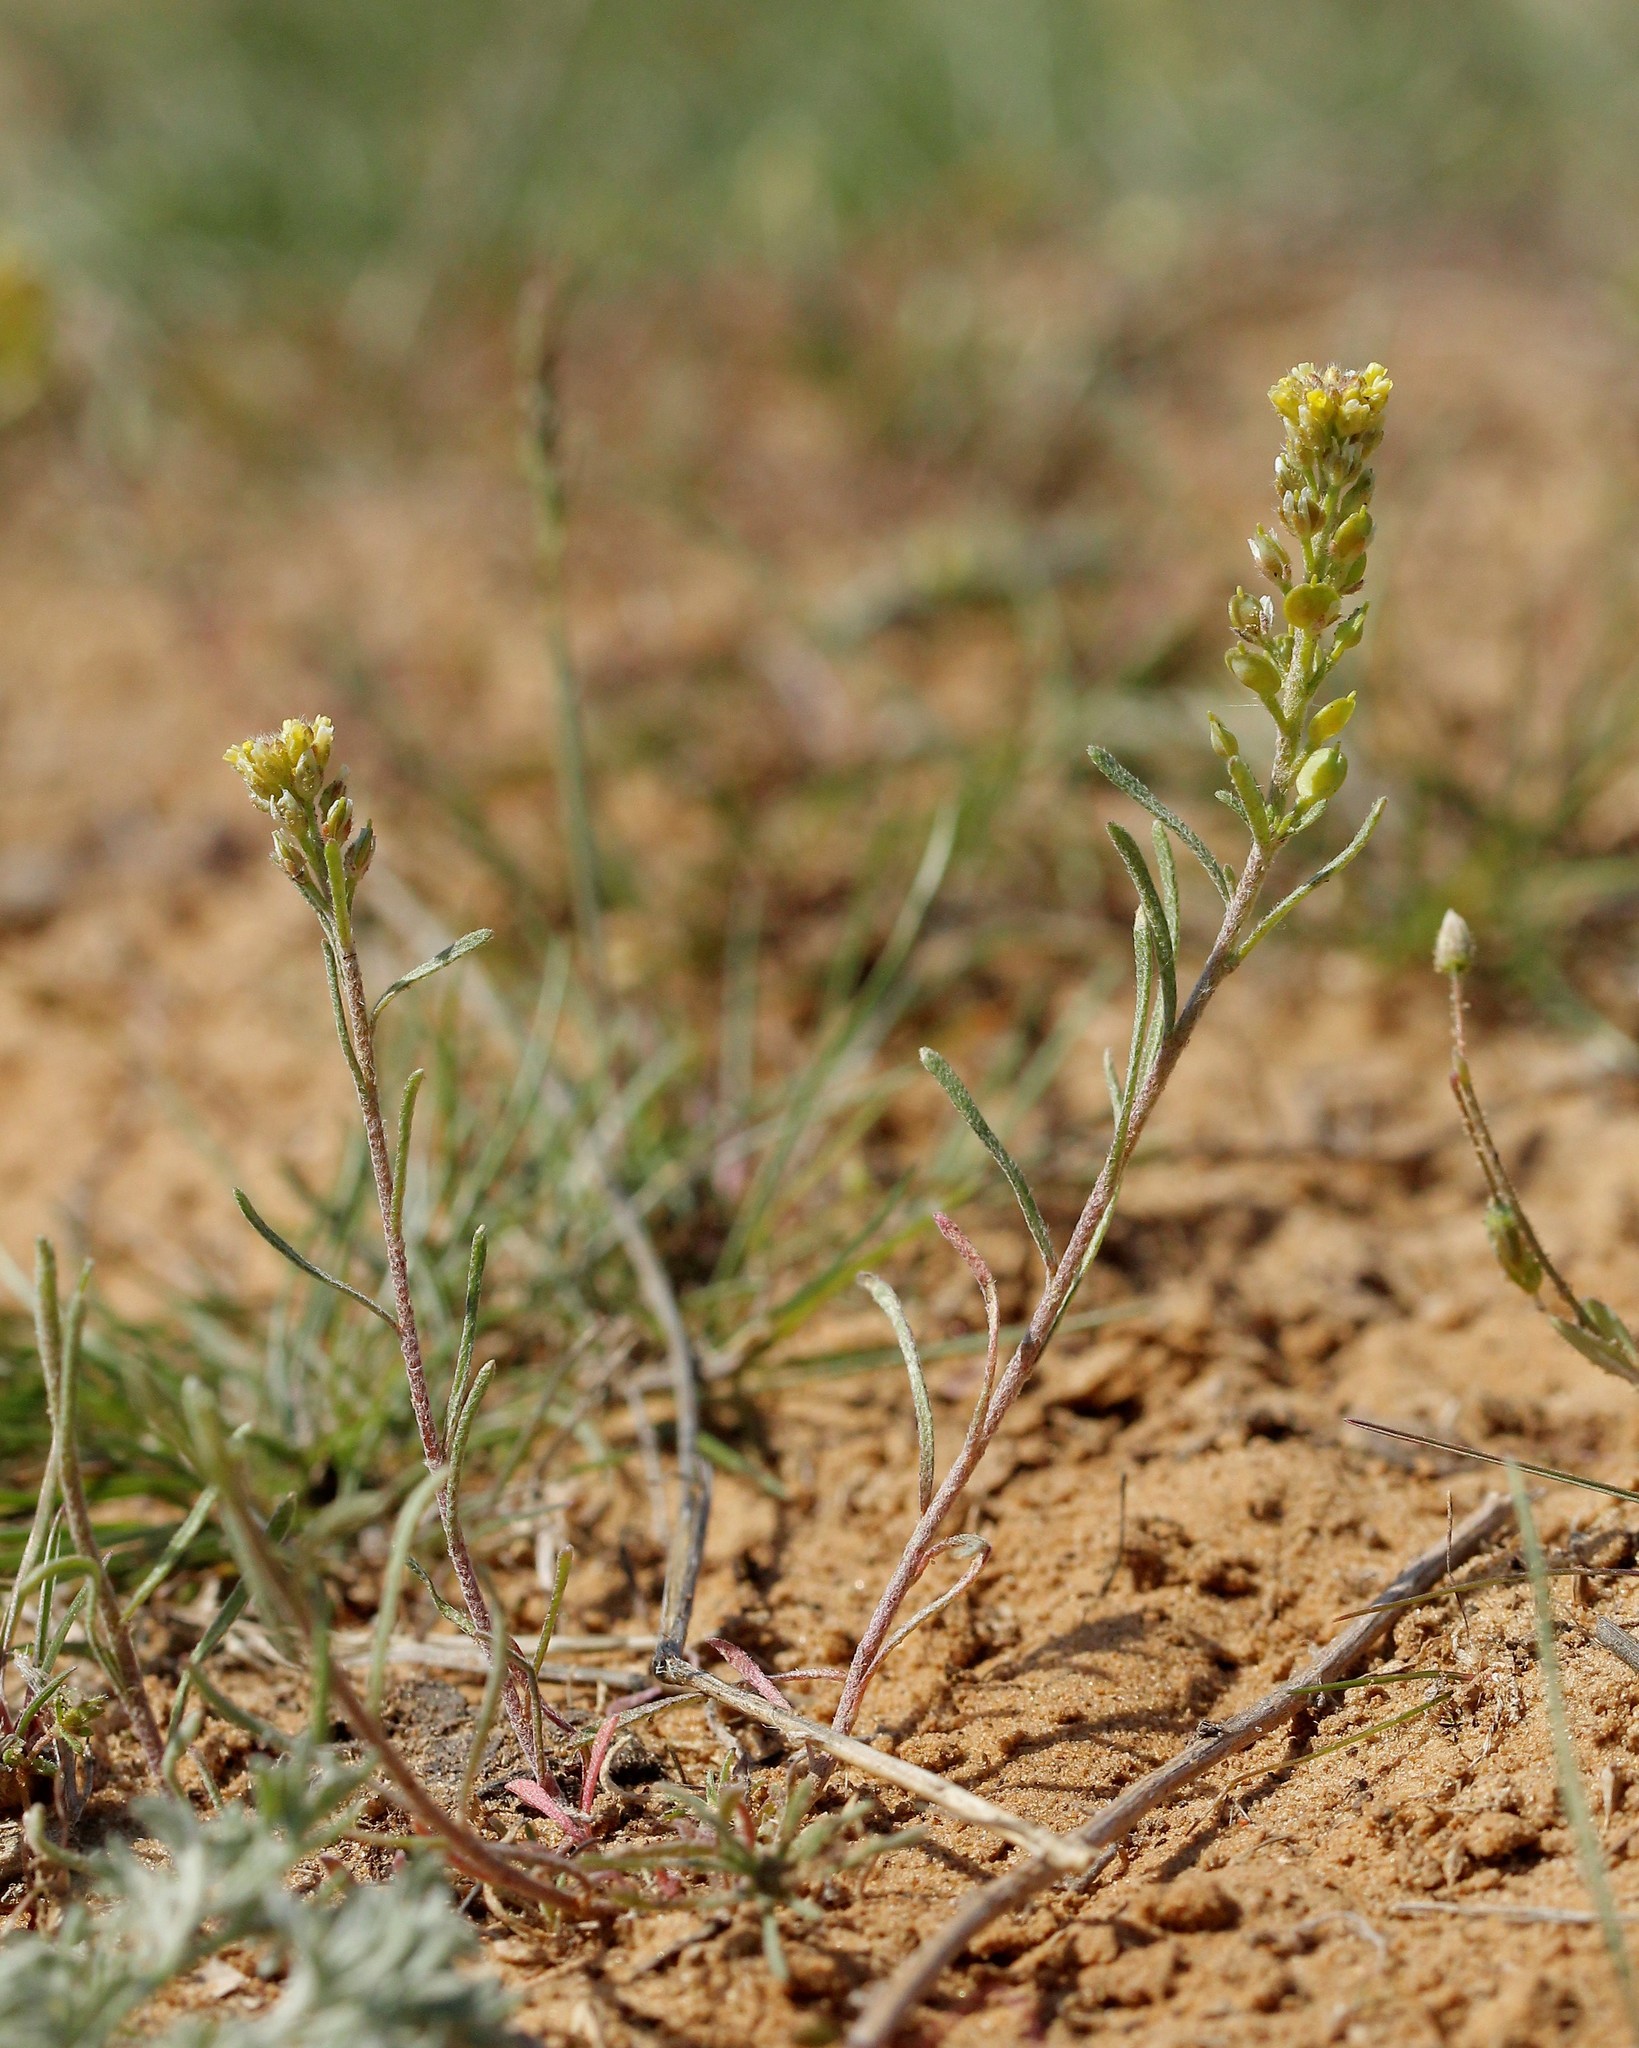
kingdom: Plantae
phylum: Tracheophyta
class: Magnoliopsida
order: Brassicales
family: Brassicaceae
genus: Alyssum
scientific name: Alyssum turkestanicum
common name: Desert alyssum
